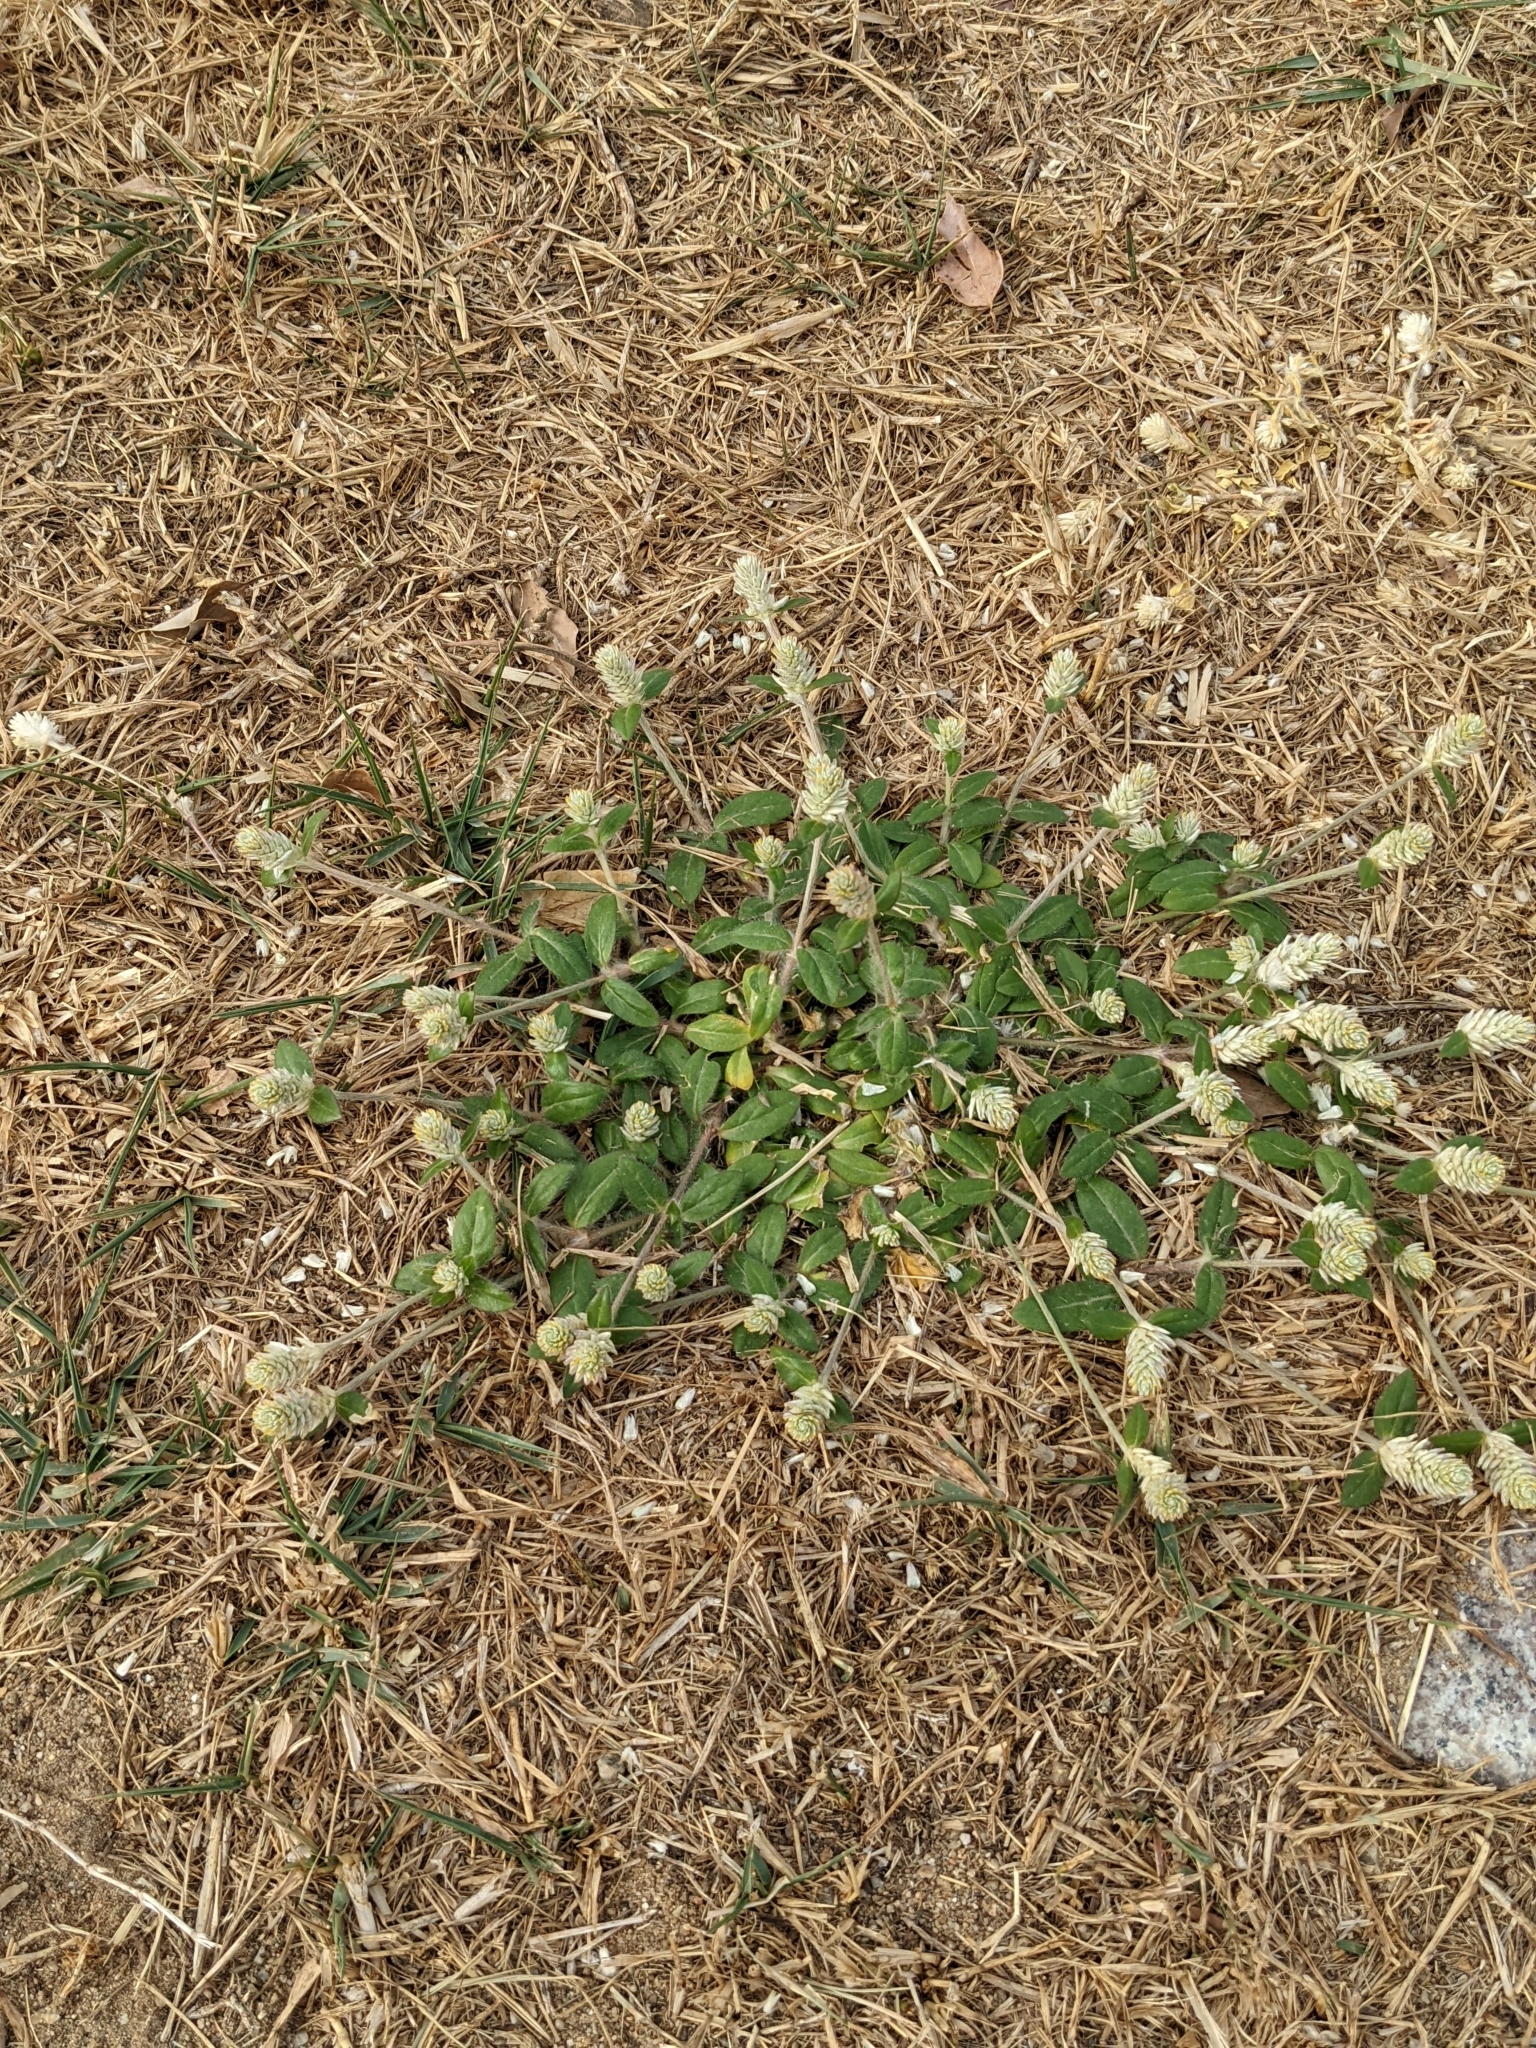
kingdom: Plantae
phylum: Tracheophyta
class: Magnoliopsida
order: Caryophyllales
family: Amaranthaceae
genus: Gomphrena
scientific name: Gomphrena celosioides
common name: Gomphrena-weed
